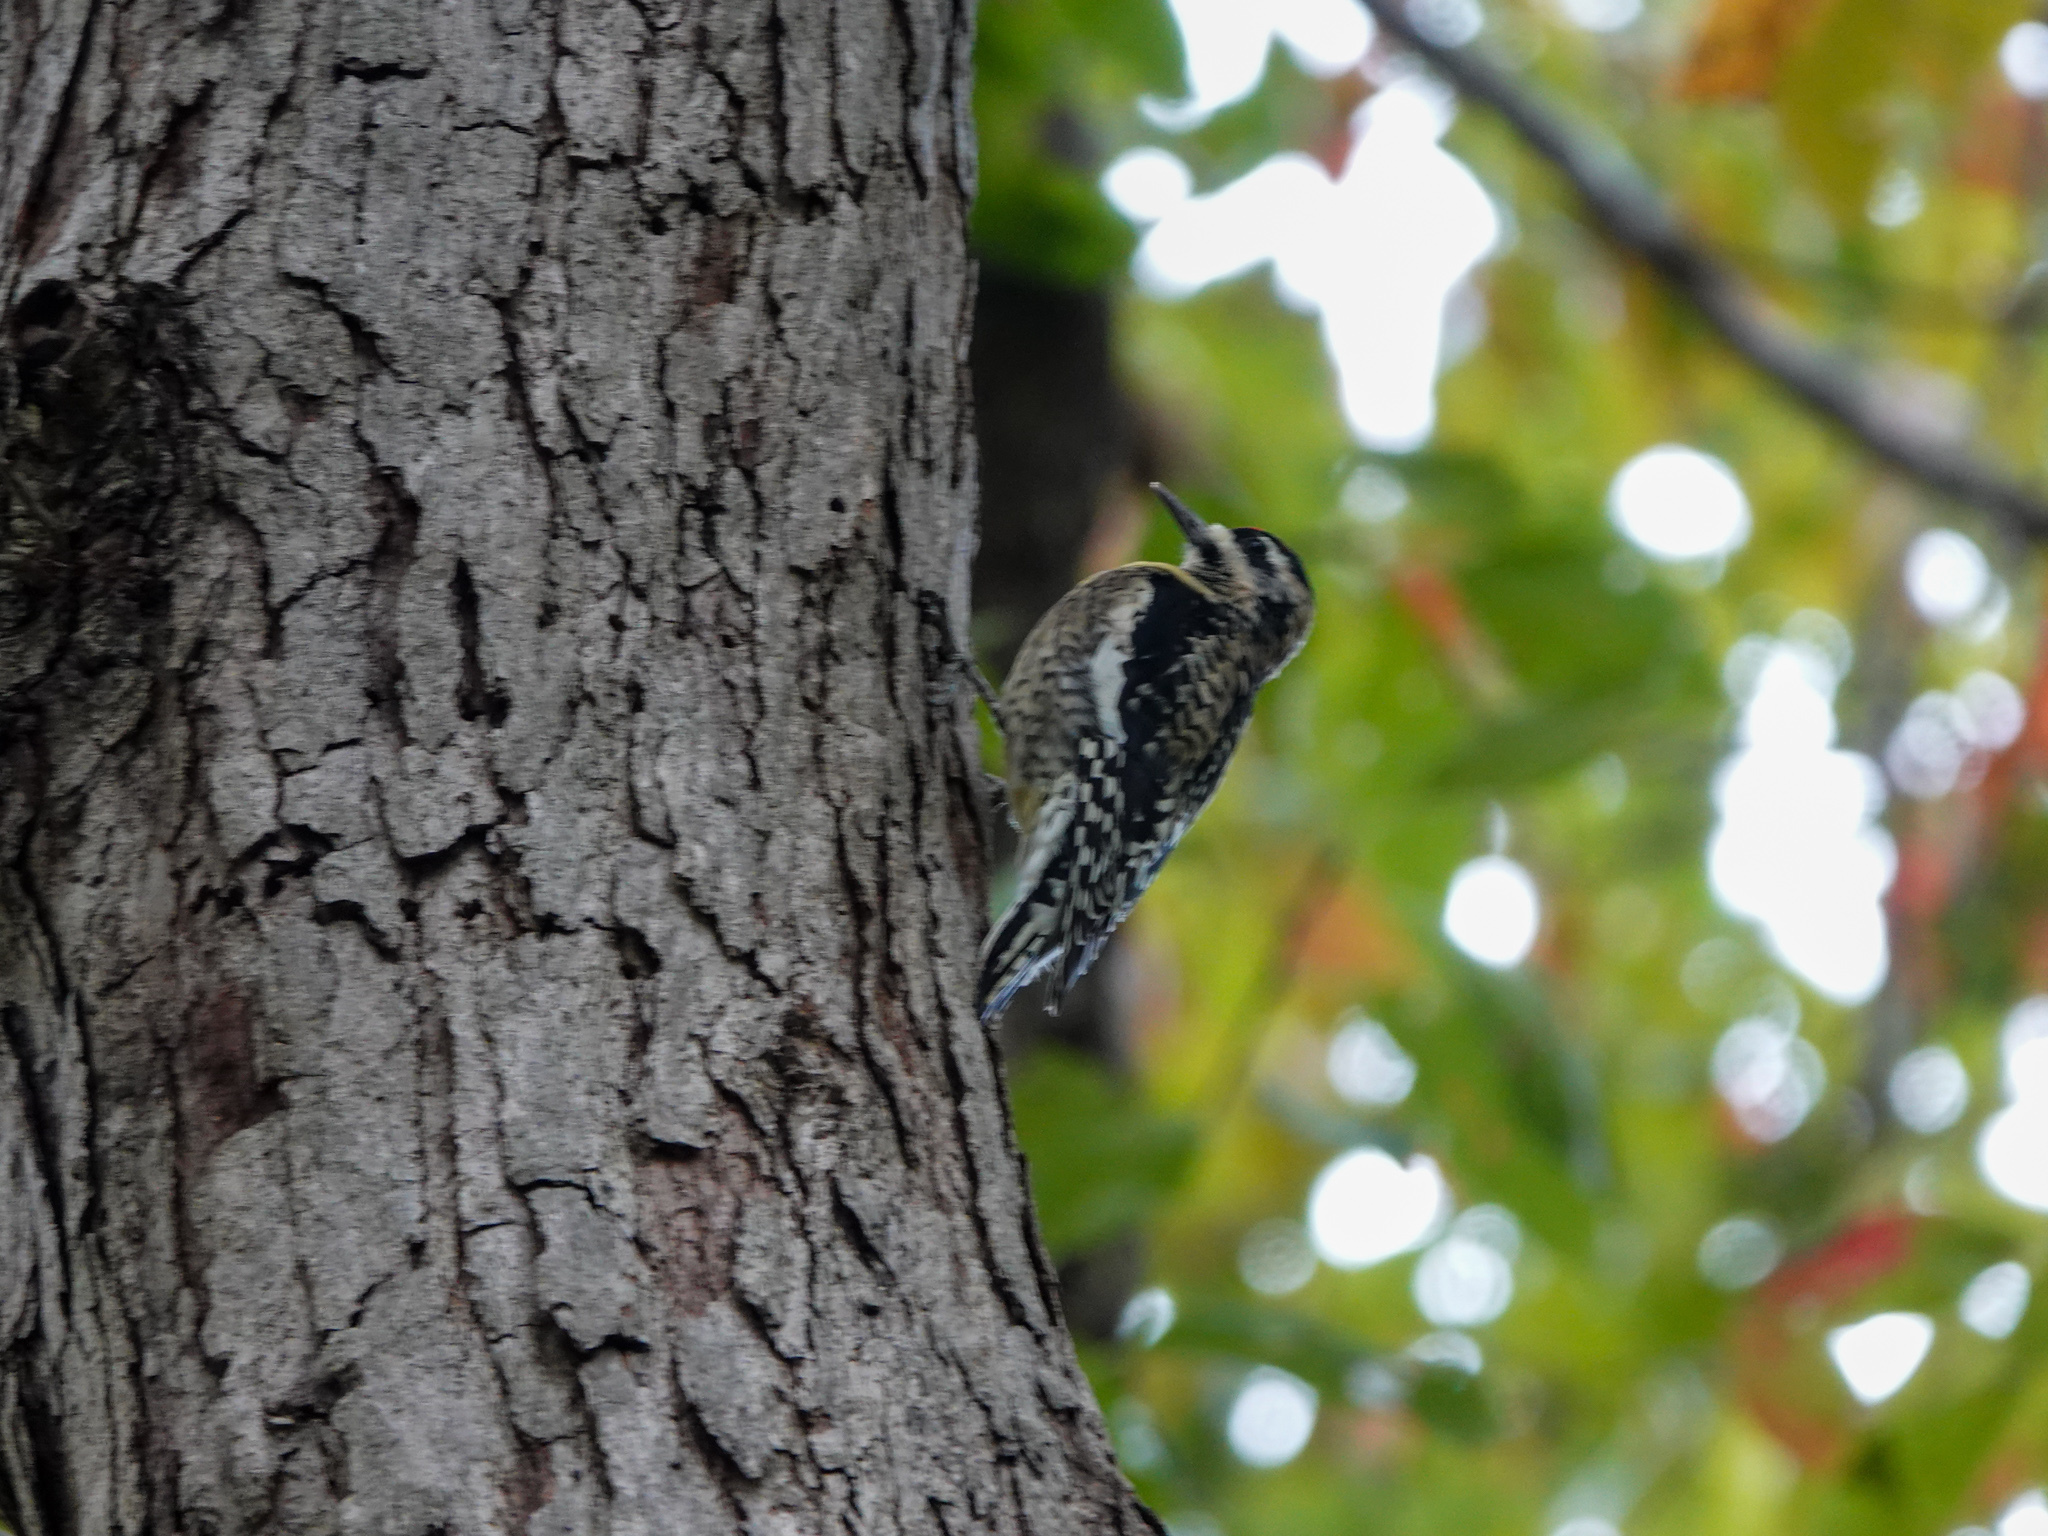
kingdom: Animalia
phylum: Chordata
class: Aves
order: Piciformes
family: Picidae
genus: Sphyrapicus
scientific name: Sphyrapicus varius
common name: Yellow-bellied sapsucker
